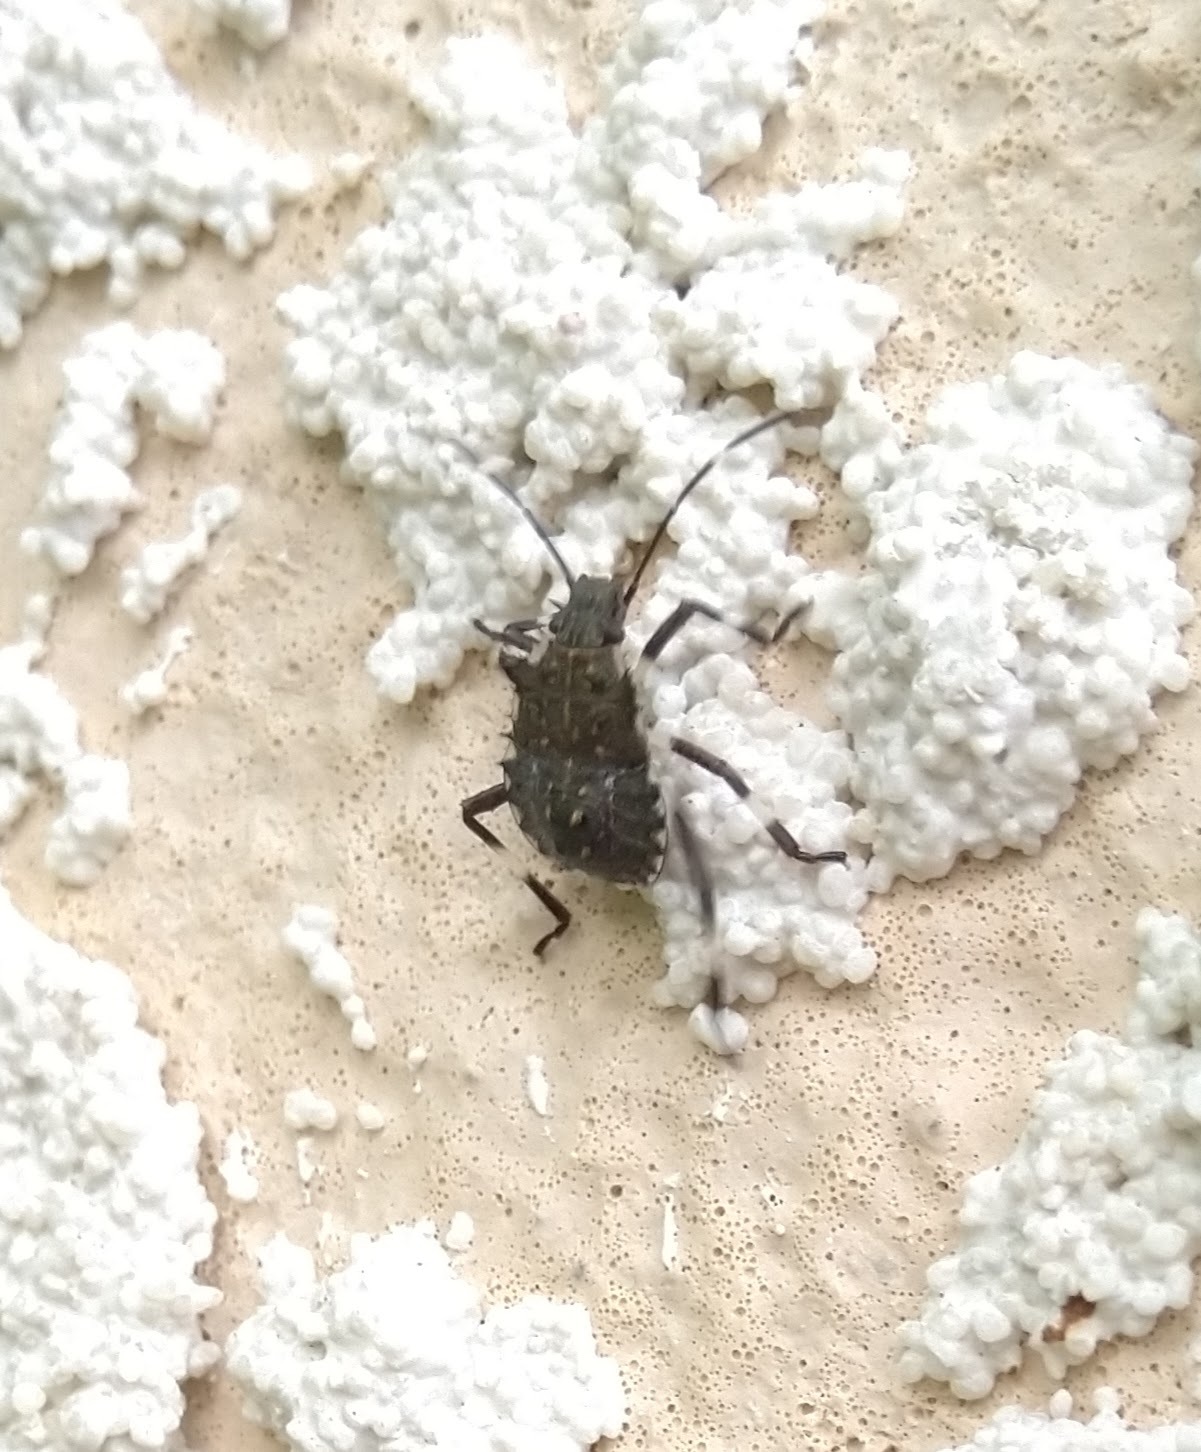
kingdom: Animalia
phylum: Arthropoda
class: Insecta
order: Hemiptera
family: Pentatomidae
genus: Halyomorpha
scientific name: Halyomorpha halys
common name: Brown marmorated stink bug
